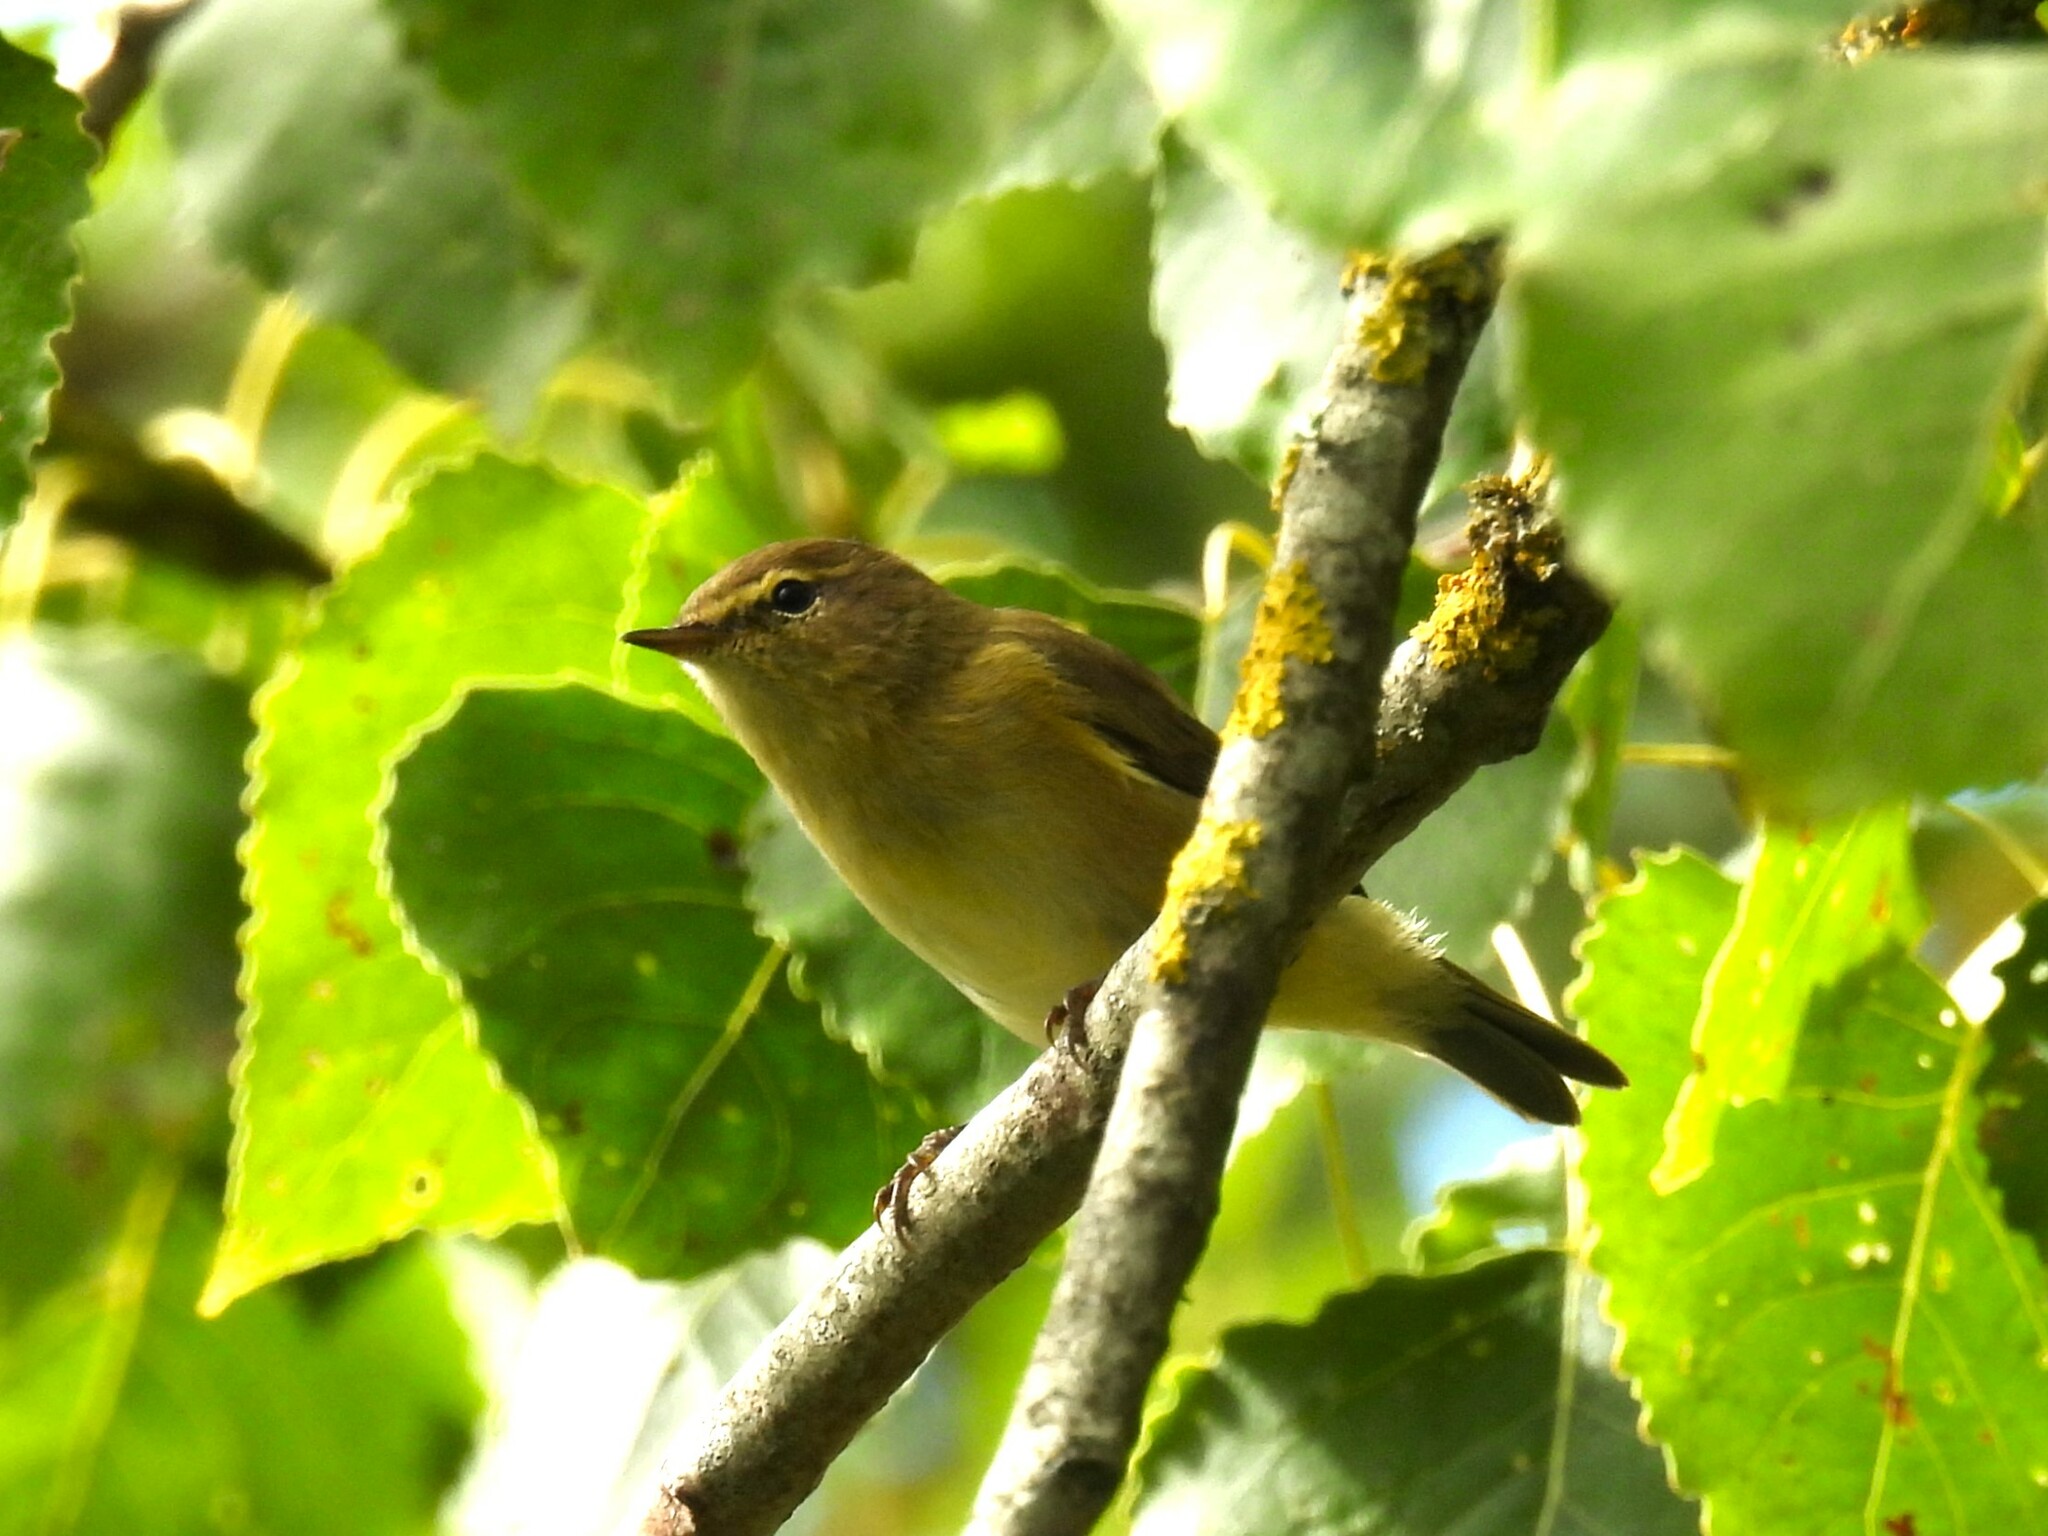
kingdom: Animalia
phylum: Chordata
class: Aves
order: Passeriformes
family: Phylloscopidae
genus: Phylloscopus
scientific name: Phylloscopus collybita
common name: Common chiffchaff
